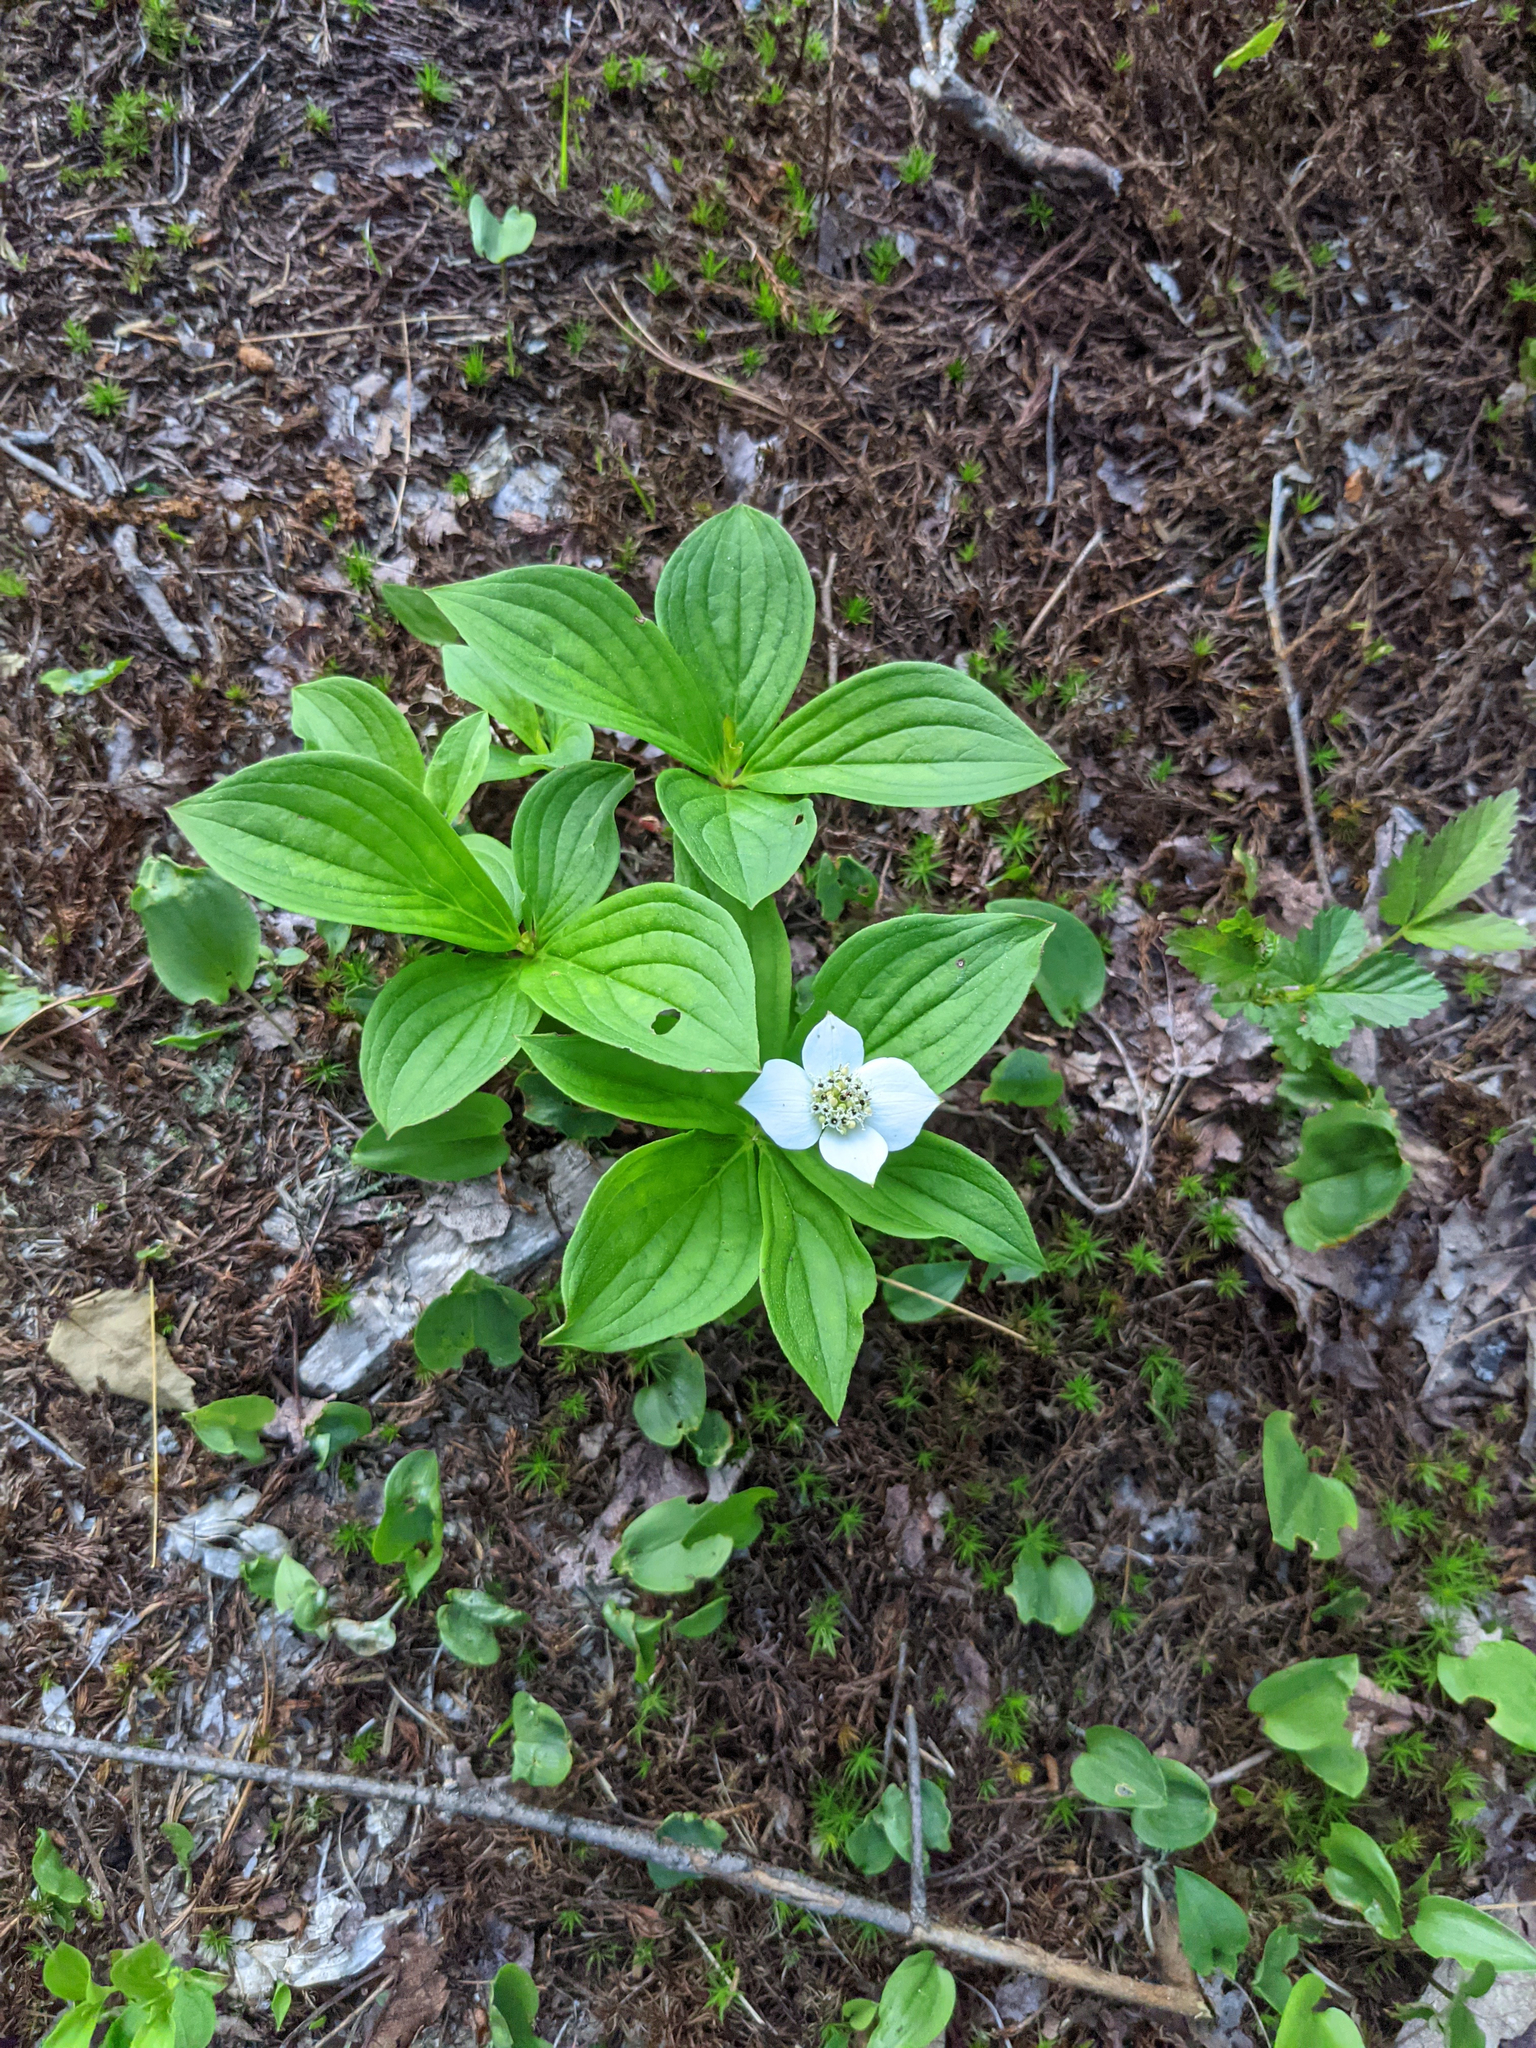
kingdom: Plantae
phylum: Tracheophyta
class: Magnoliopsida
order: Cornales
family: Cornaceae
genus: Cornus
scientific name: Cornus canadensis
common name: Creeping dogwood
